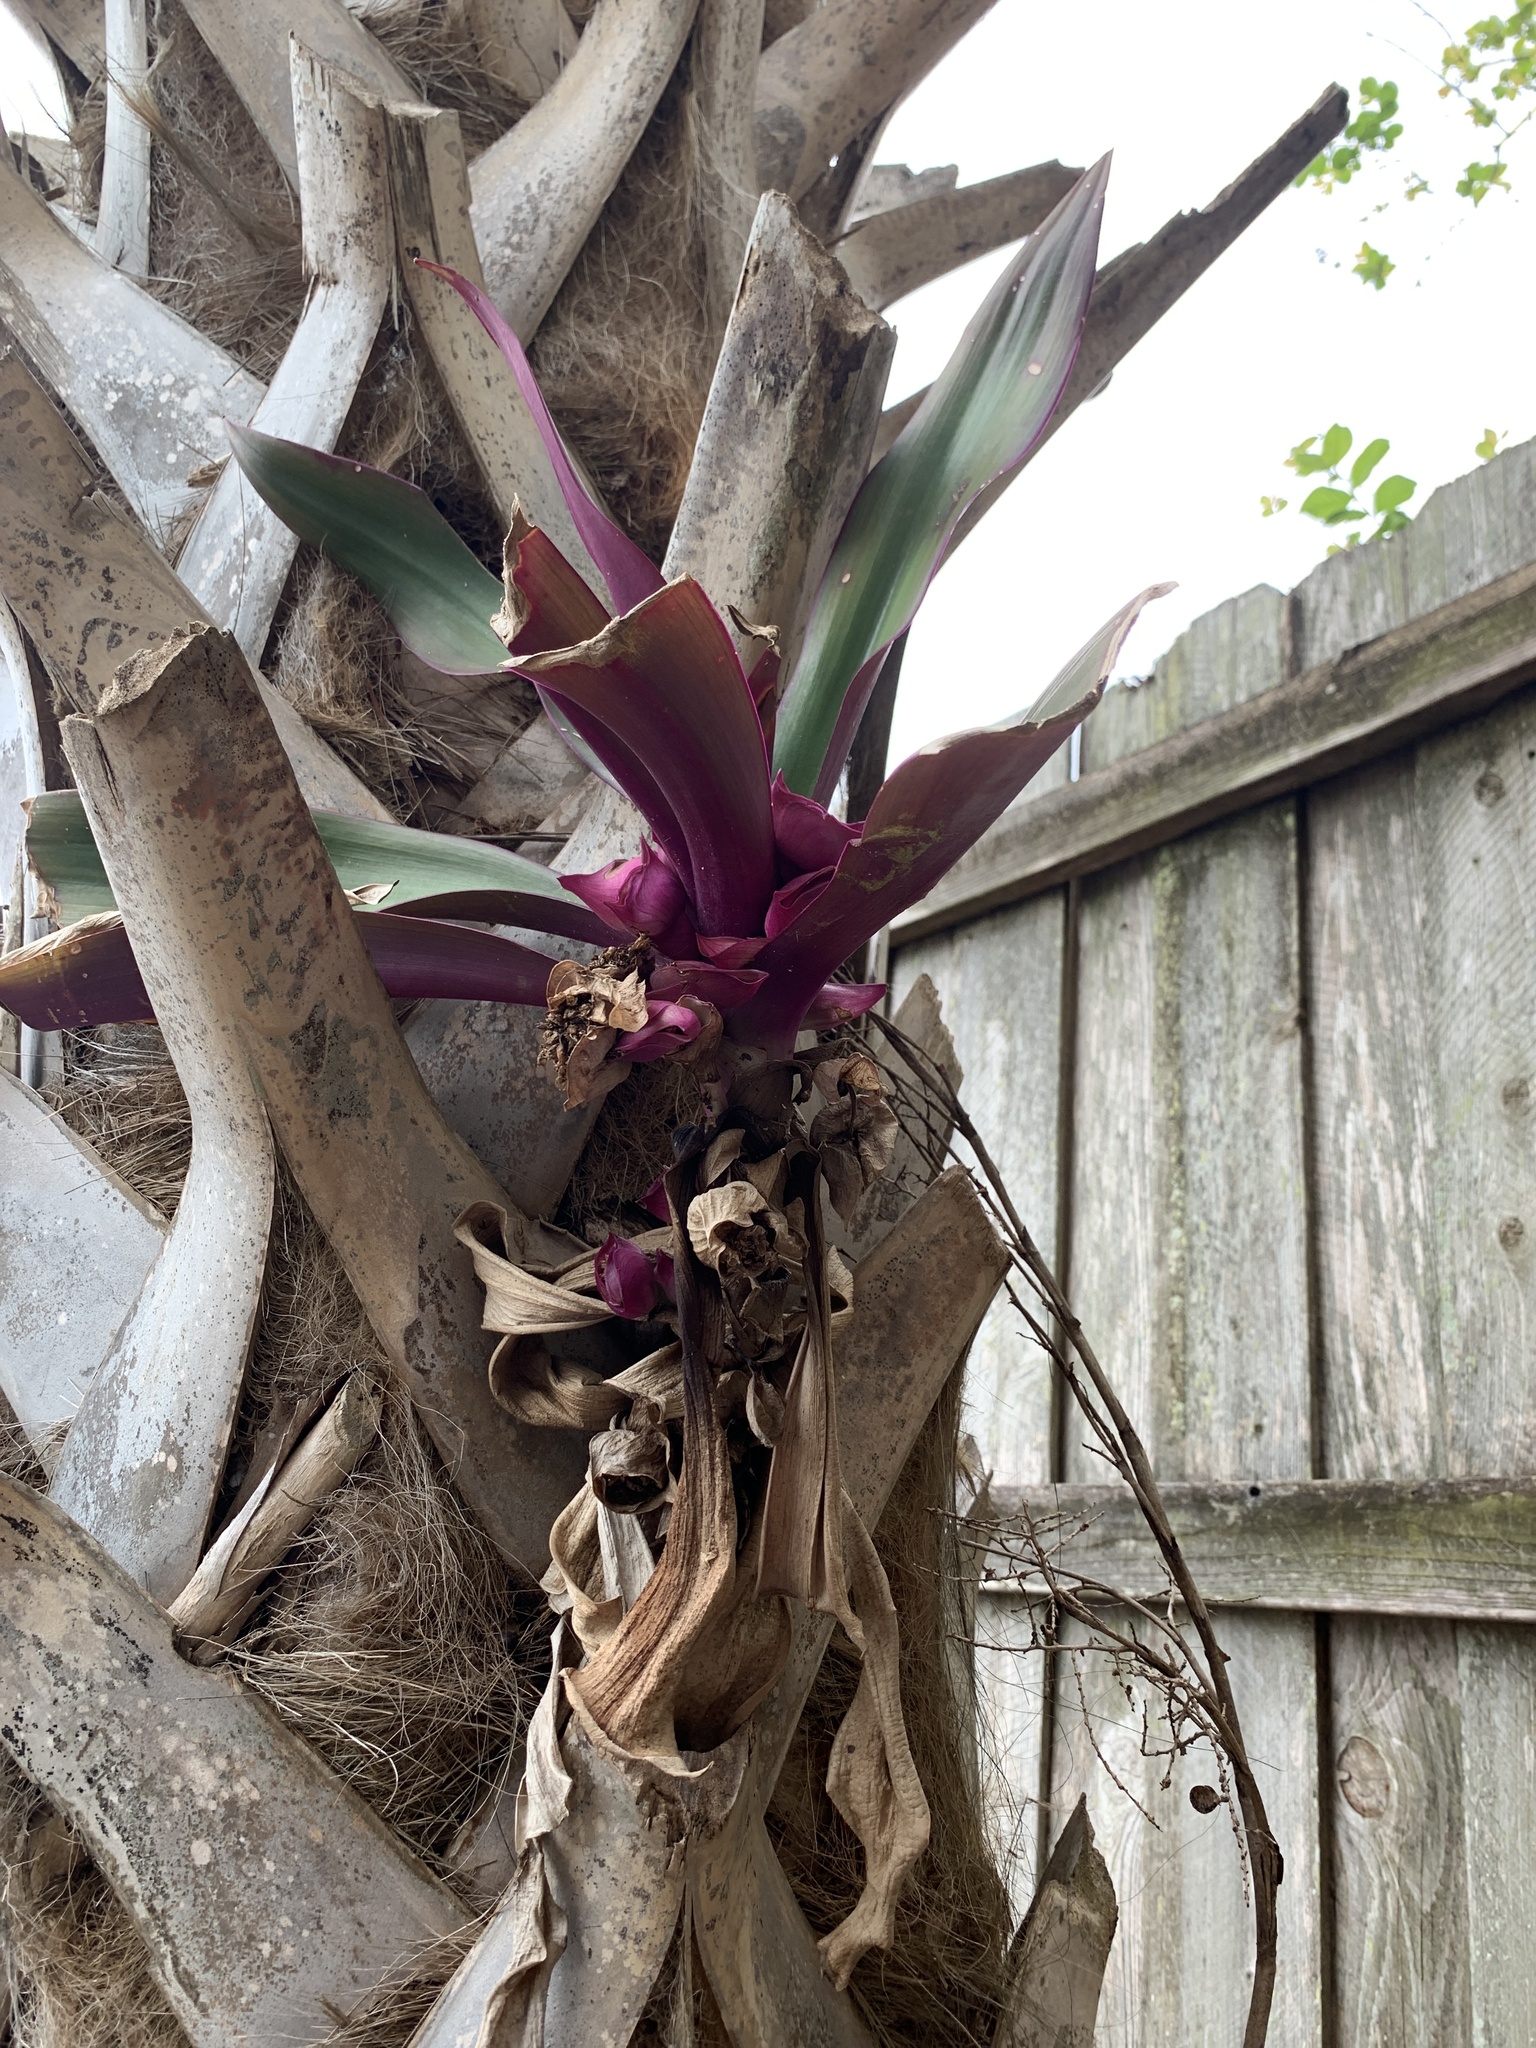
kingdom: Plantae
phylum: Tracheophyta
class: Liliopsida
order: Commelinales
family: Commelinaceae
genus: Tradescantia
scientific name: Tradescantia spathacea
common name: Boatlily
